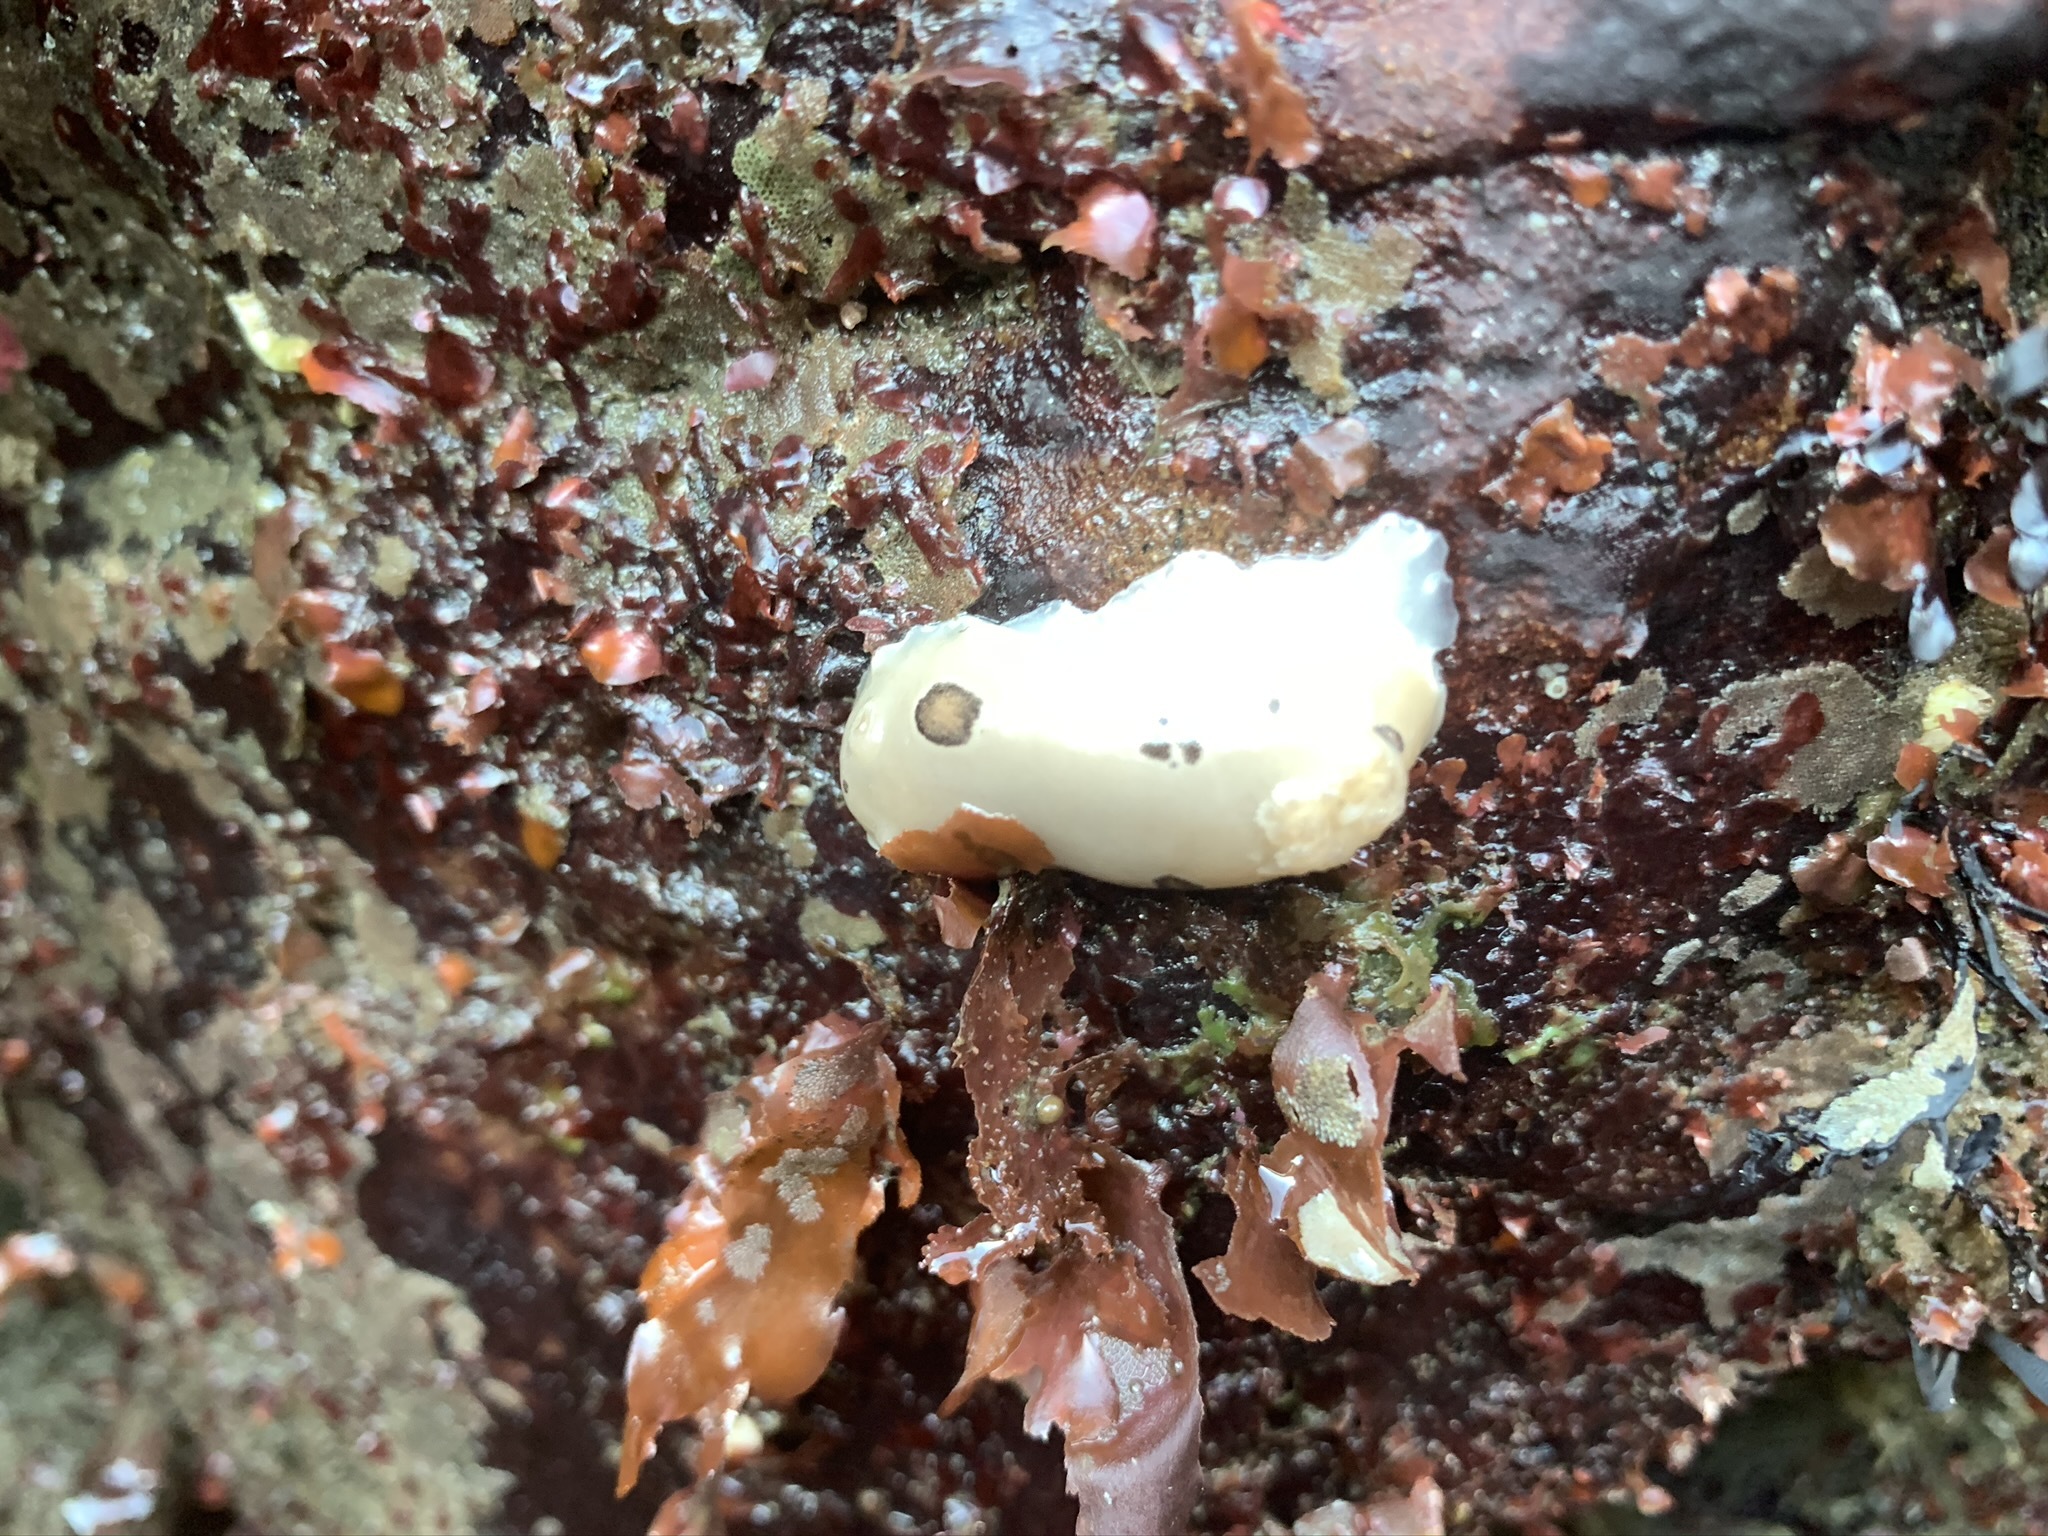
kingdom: Animalia
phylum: Mollusca
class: Gastropoda
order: Nudibranchia
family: Discodorididae
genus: Diaulula
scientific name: Diaulula sandiegensis
